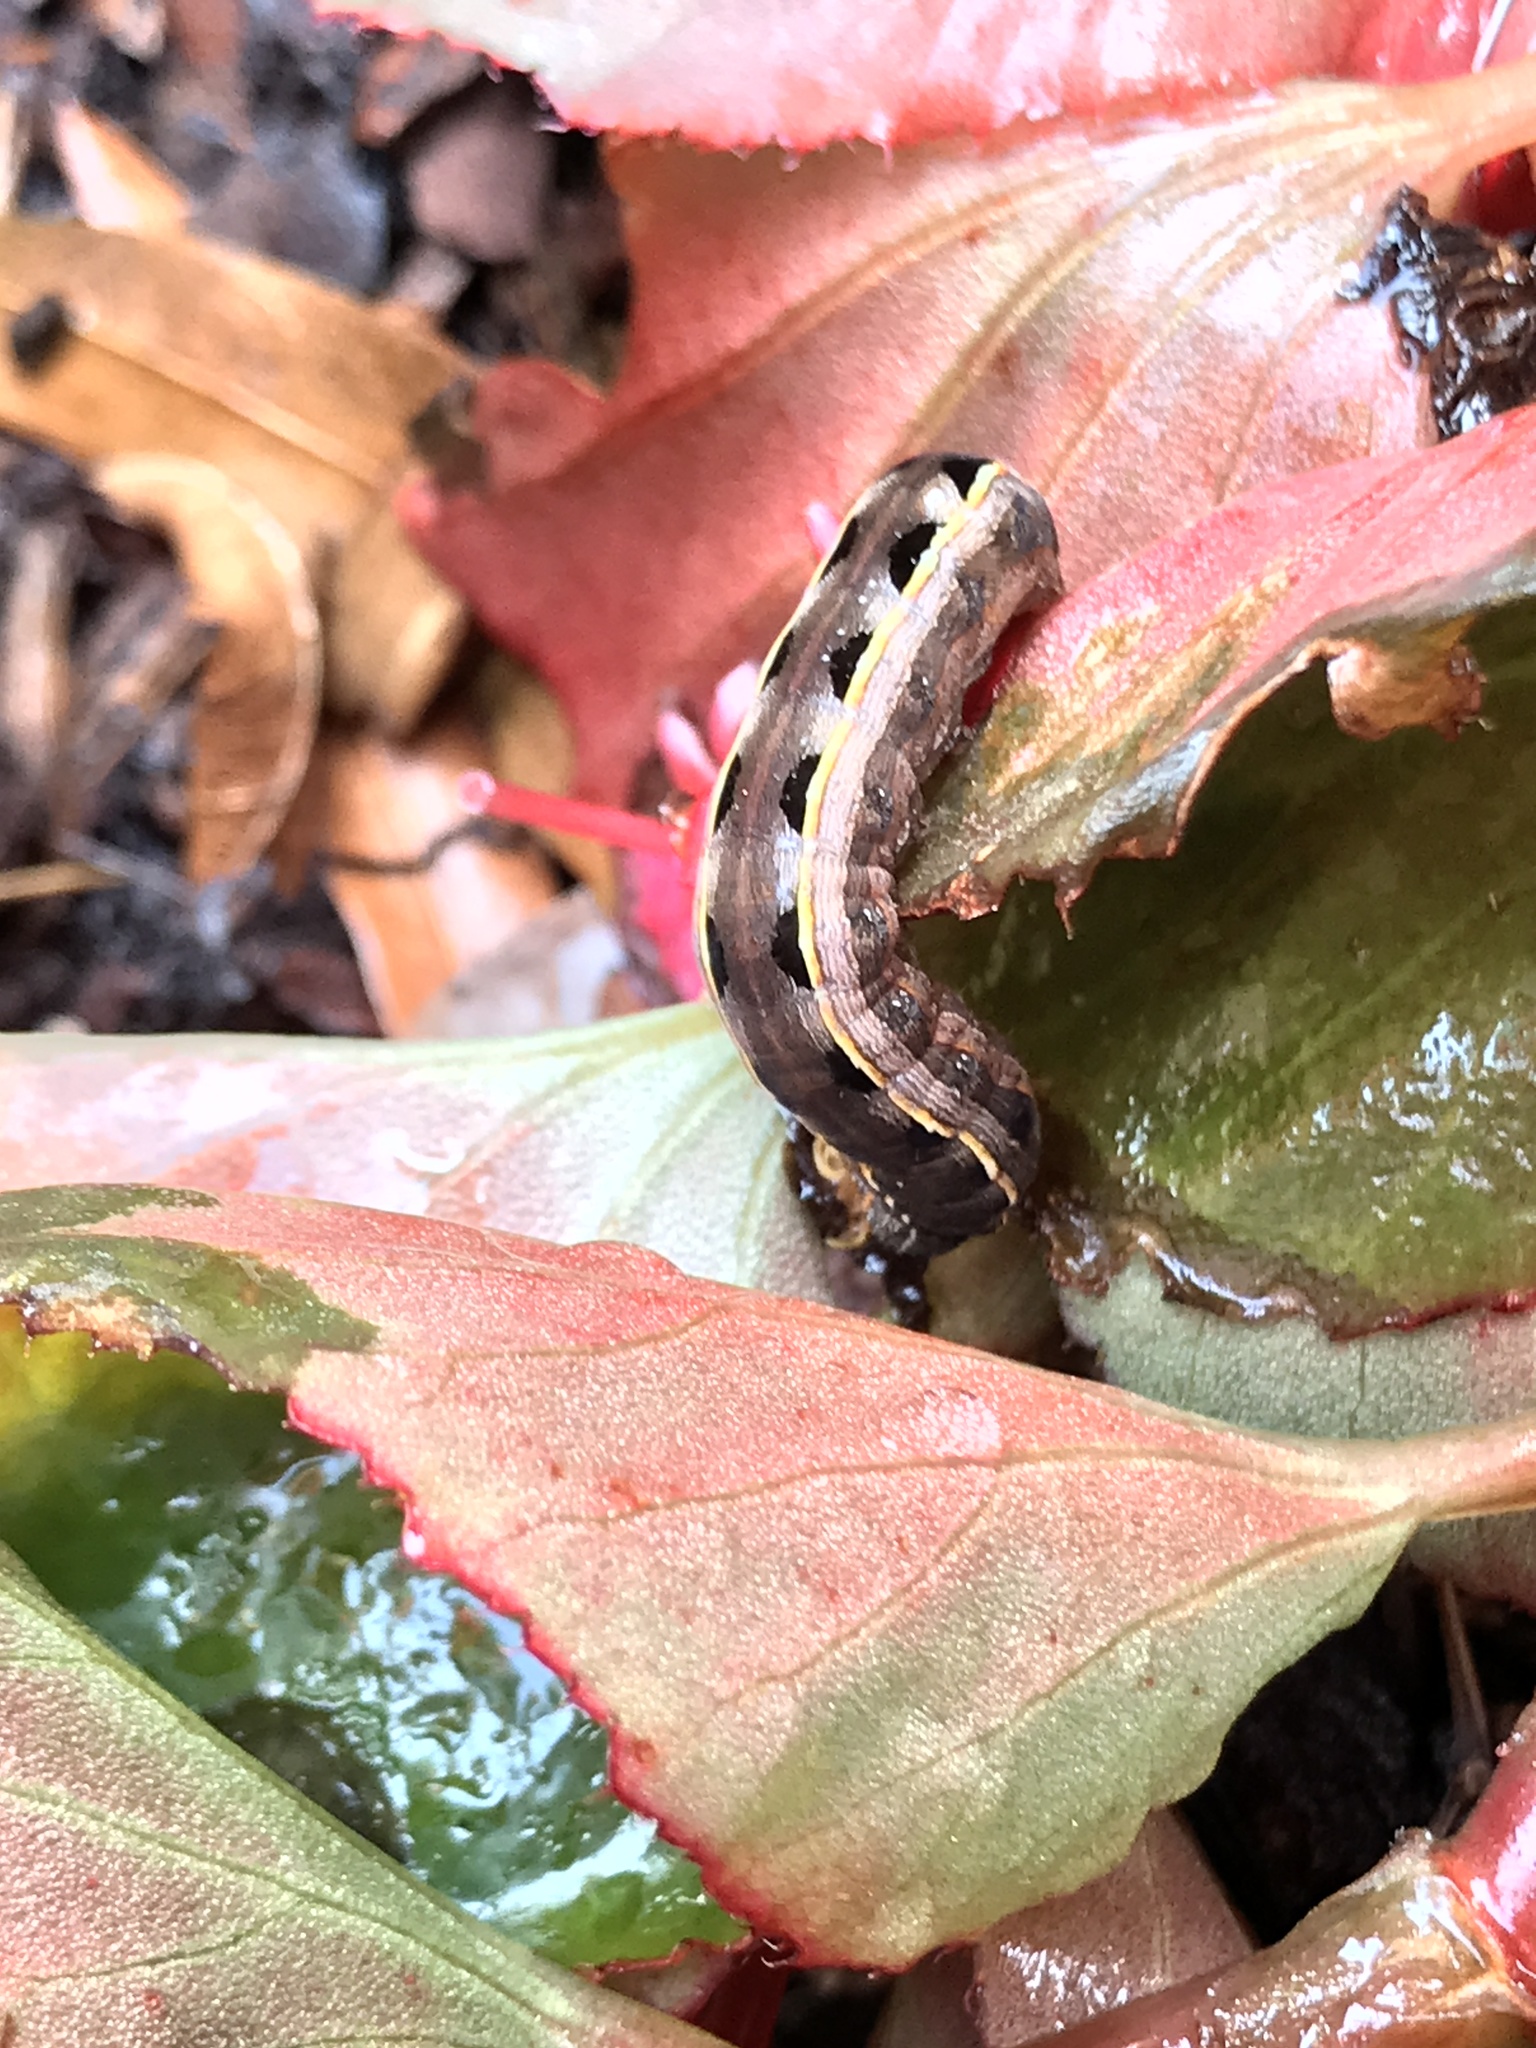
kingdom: Animalia
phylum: Arthropoda
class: Insecta
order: Lepidoptera
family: Noctuidae
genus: Spodoptera
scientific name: Spodoptera ornithogalli
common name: Yellow-striped armyworm
